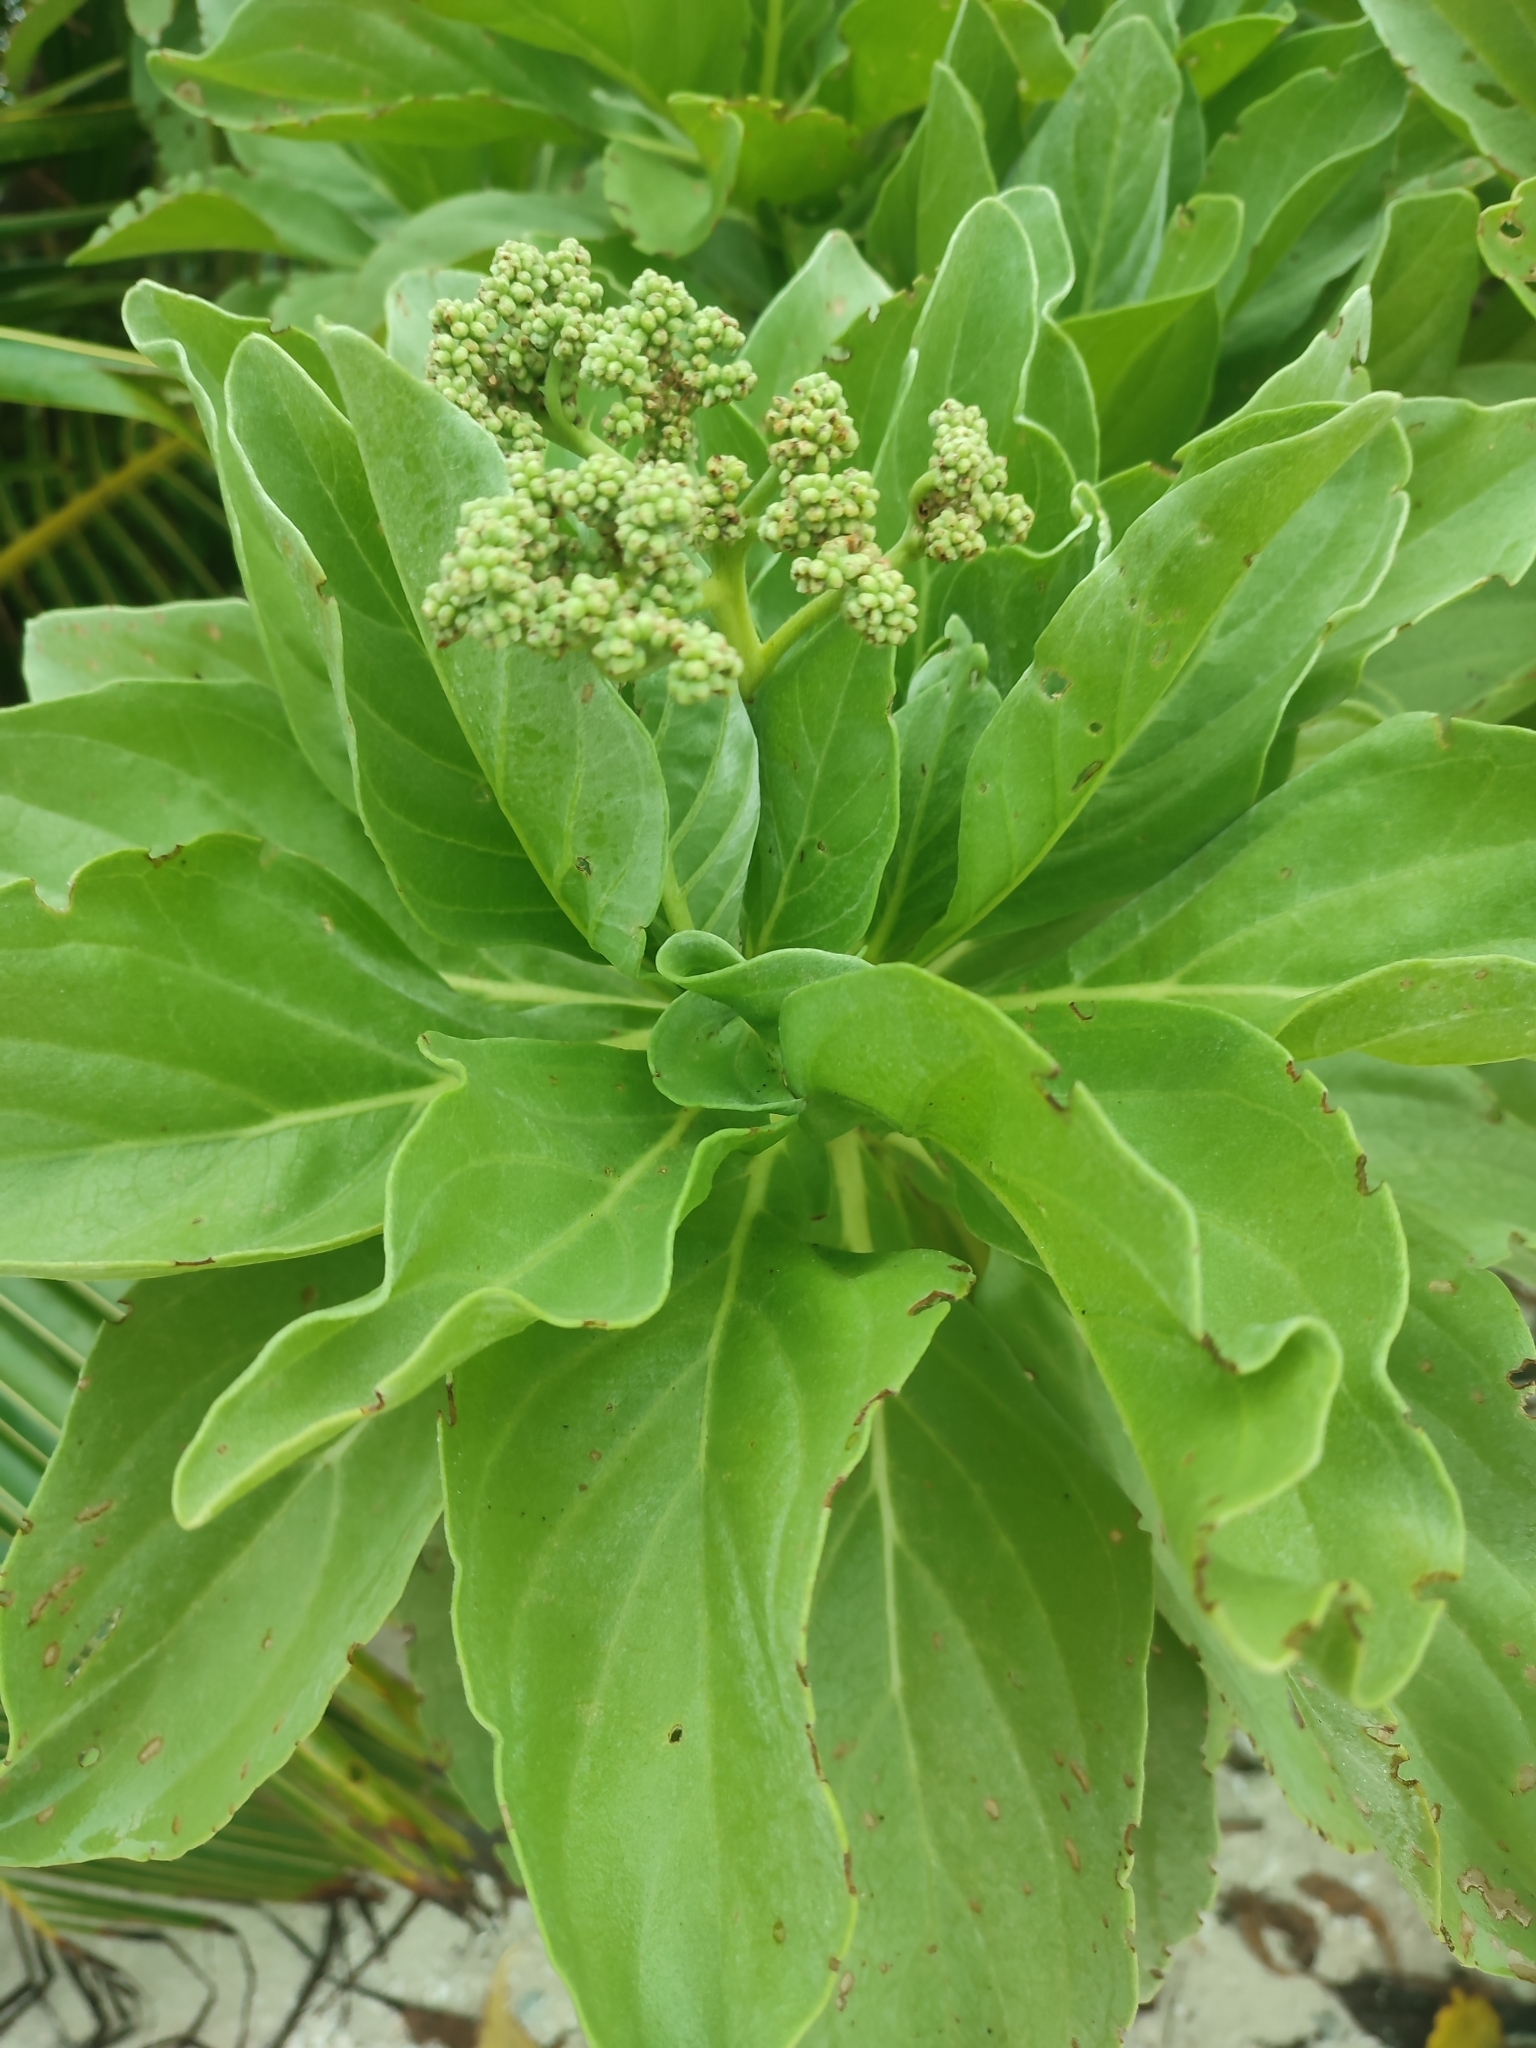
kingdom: Plantae
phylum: Tracheophyta
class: Magnoliopsida
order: Boraginales
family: Heliotropiaceae
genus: Heliotropium
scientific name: Heliotropium velutinum
